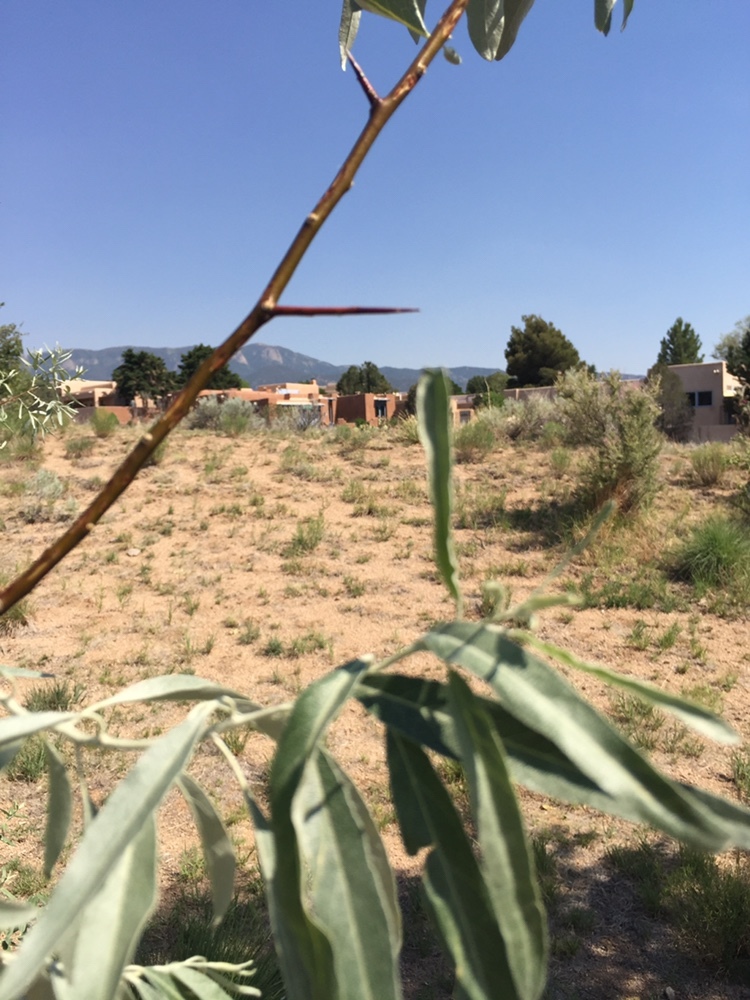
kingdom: Plantae
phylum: Tracheophyta
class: Magnoliopsida
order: Rosales
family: Elaeagnaceae
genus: Elaeagnus
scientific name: Elaeagnus angustifolia
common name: Russian olive
